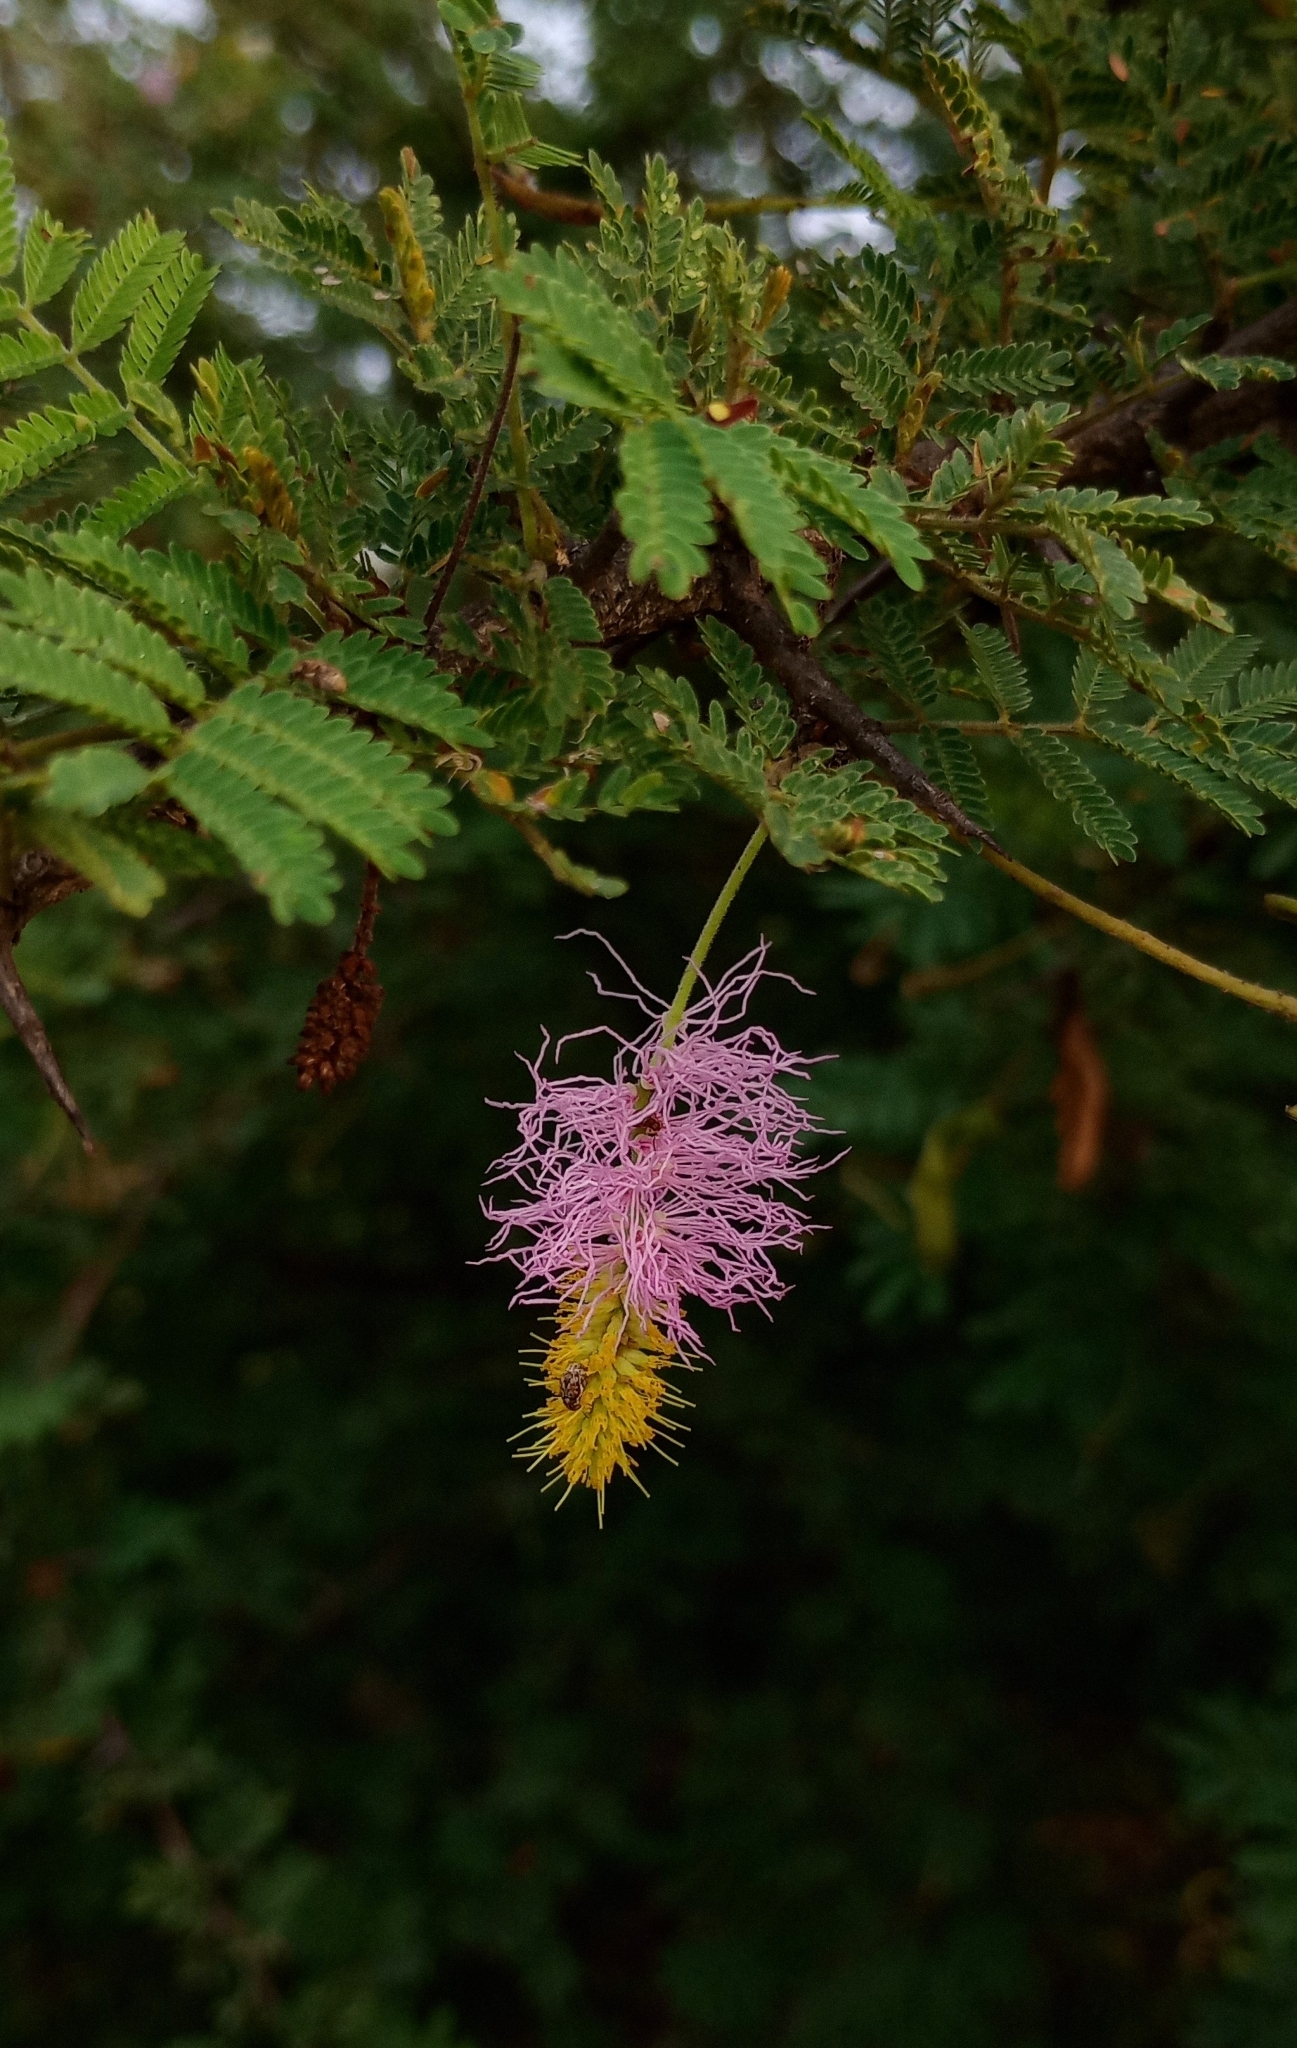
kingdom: Plantae
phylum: Tracheophyta
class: Magnoliopsida
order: Fabales
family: Fabaceae
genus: Dichrostachys
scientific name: Dichrostachys cinerea
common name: Sicklebush
